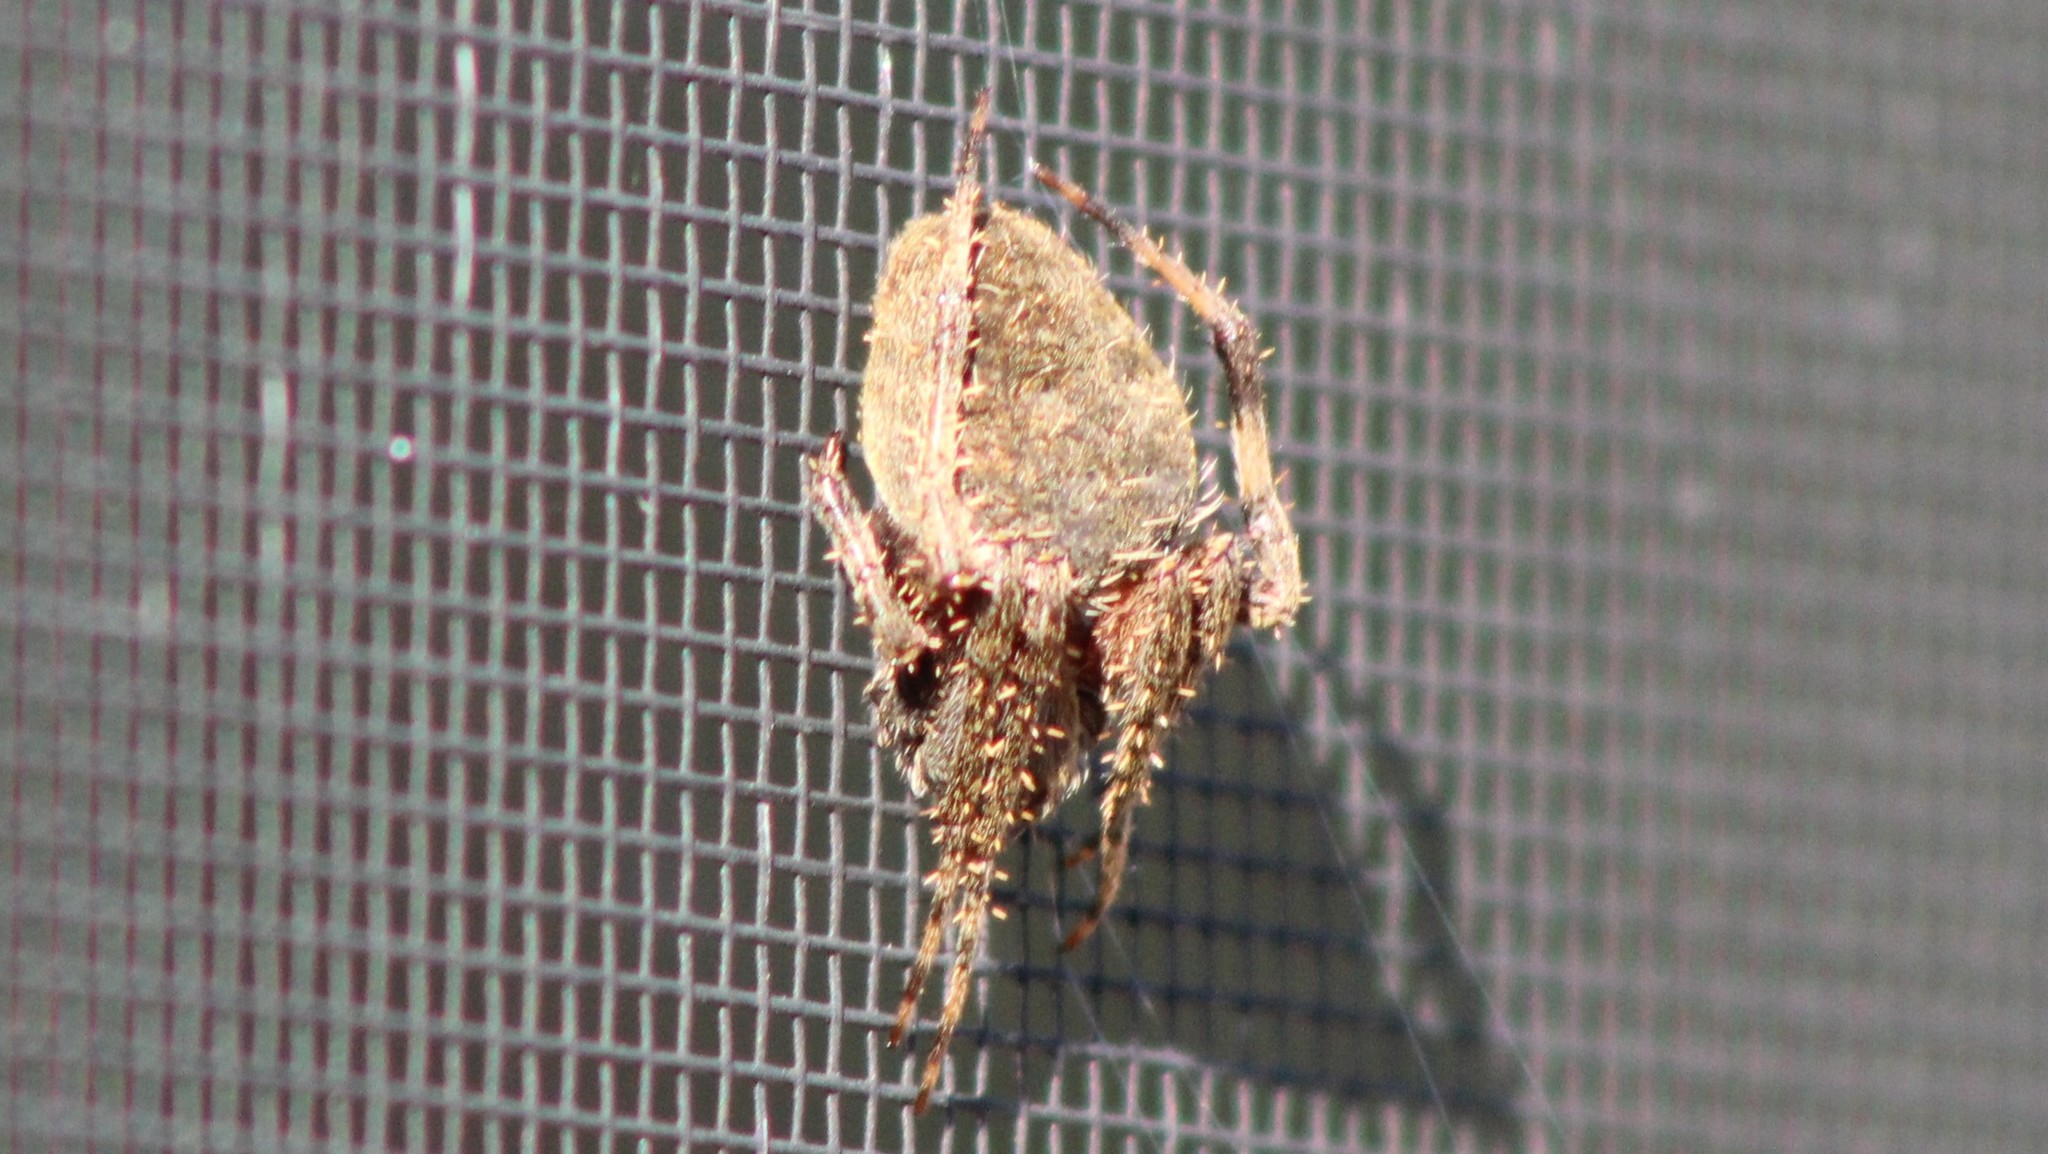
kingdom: Animalia
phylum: Arthropoda
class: Arachnida
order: Araneae
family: Araneidae
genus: Neoscona
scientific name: Neoscona crucifera
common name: Spotted orbweaver
